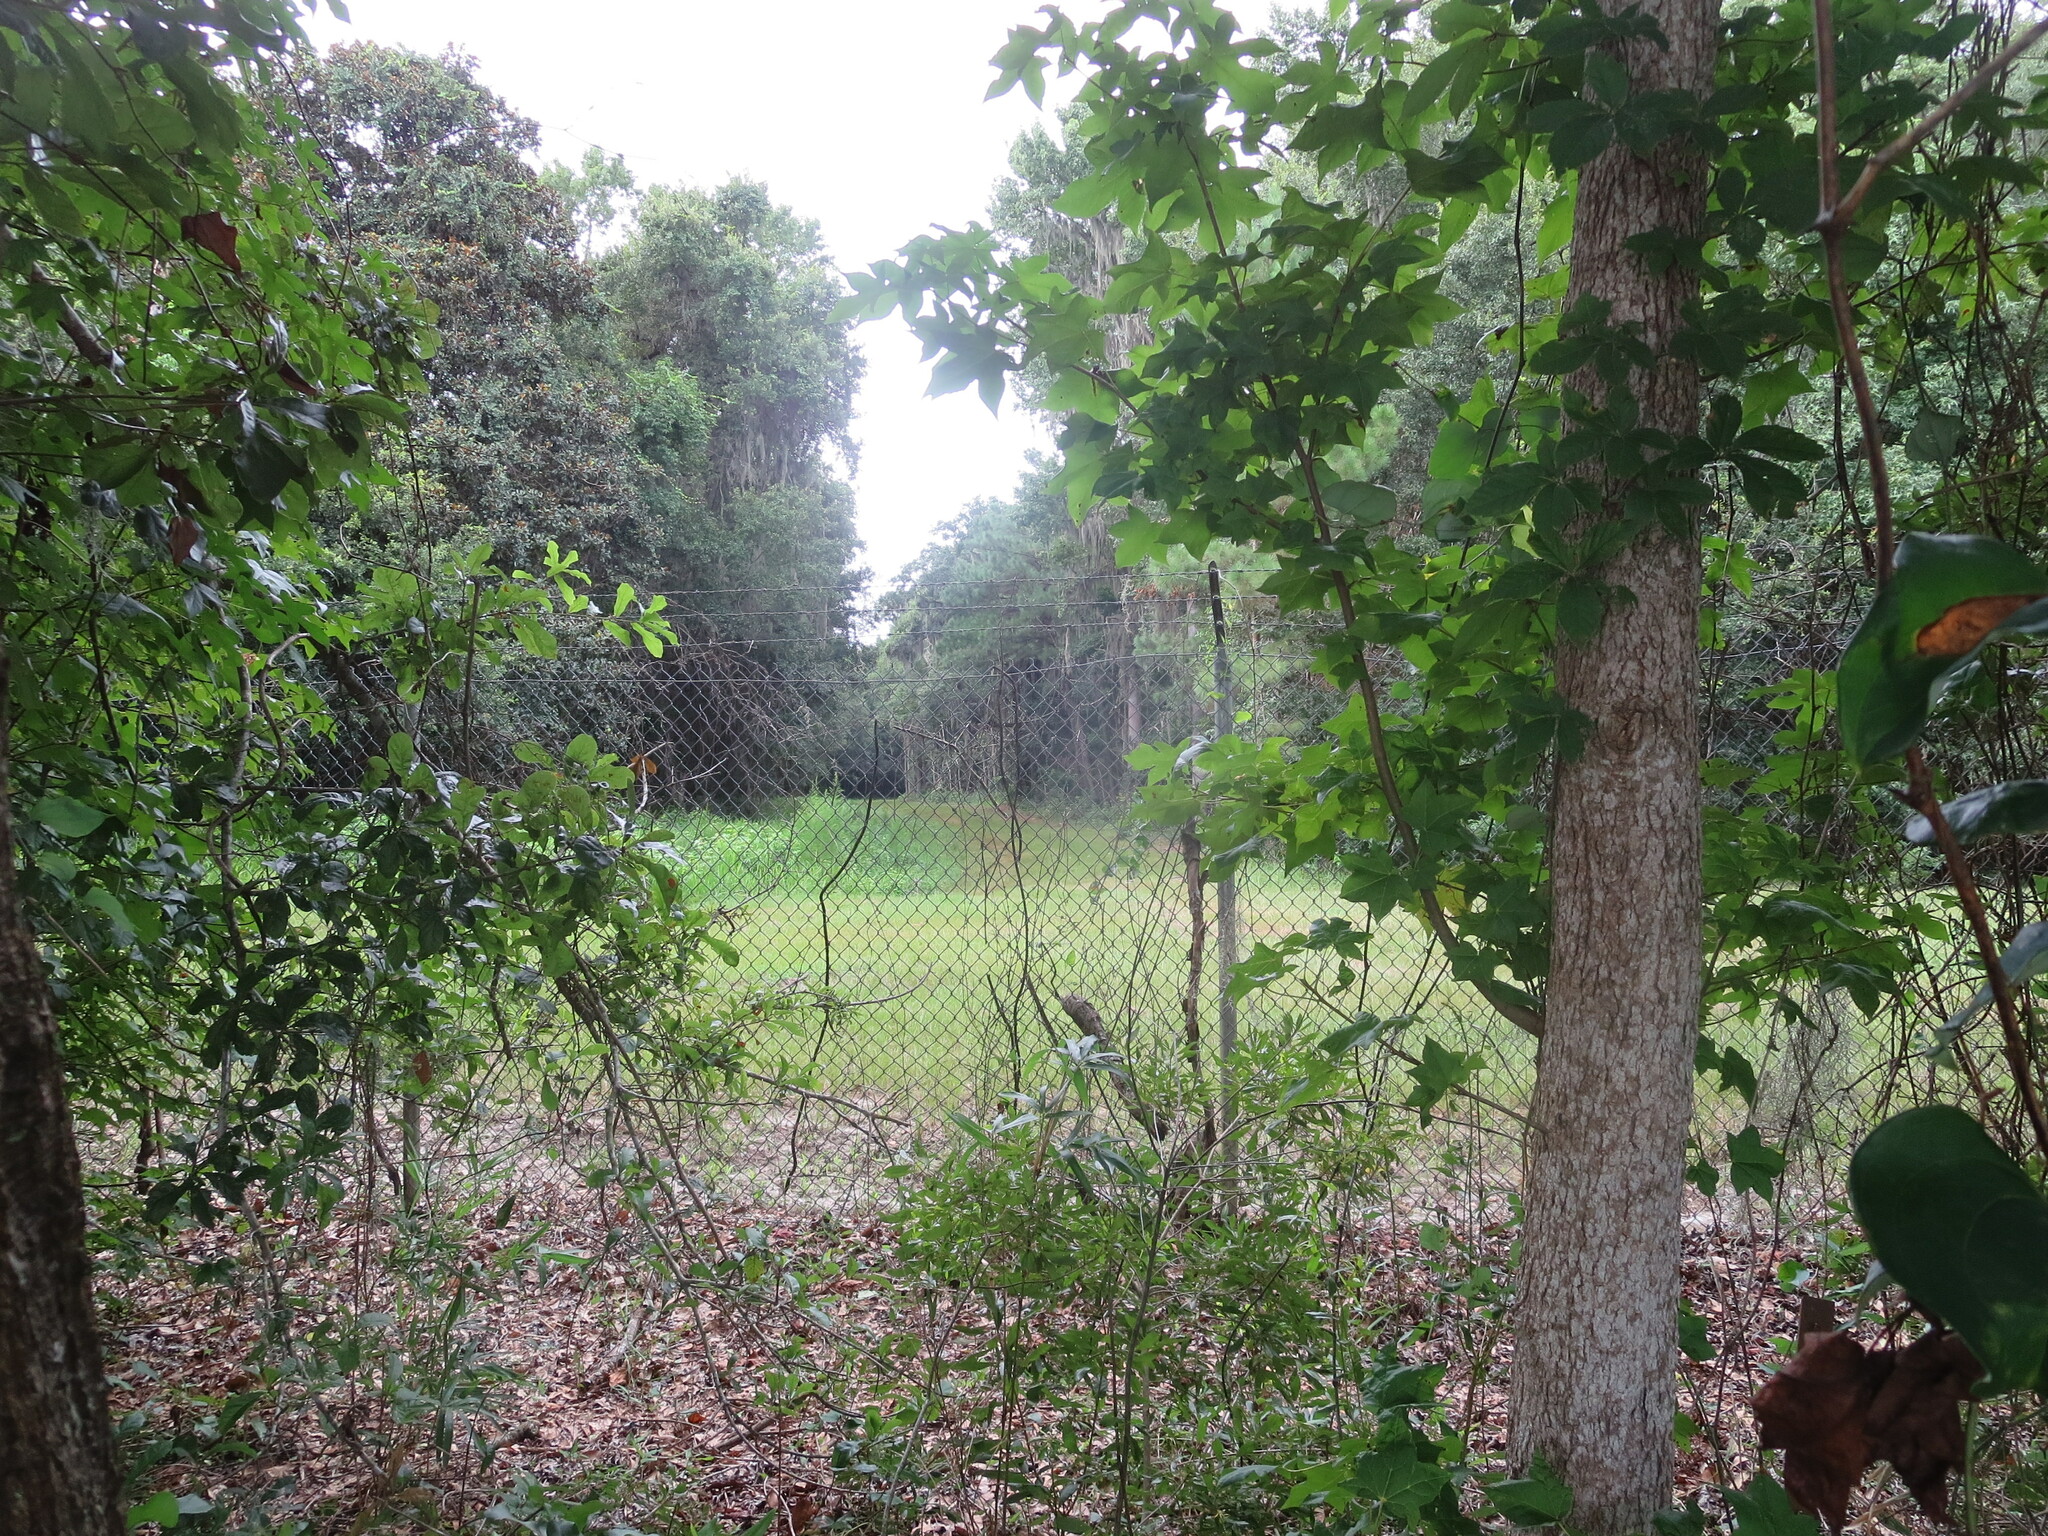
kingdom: Plantae
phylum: Tracheophyta
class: Magnoliopsida
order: Saxifragales
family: Altingiaceae
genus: Liquidambar
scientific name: Liquidambar styraciflua
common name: Sweet gum
